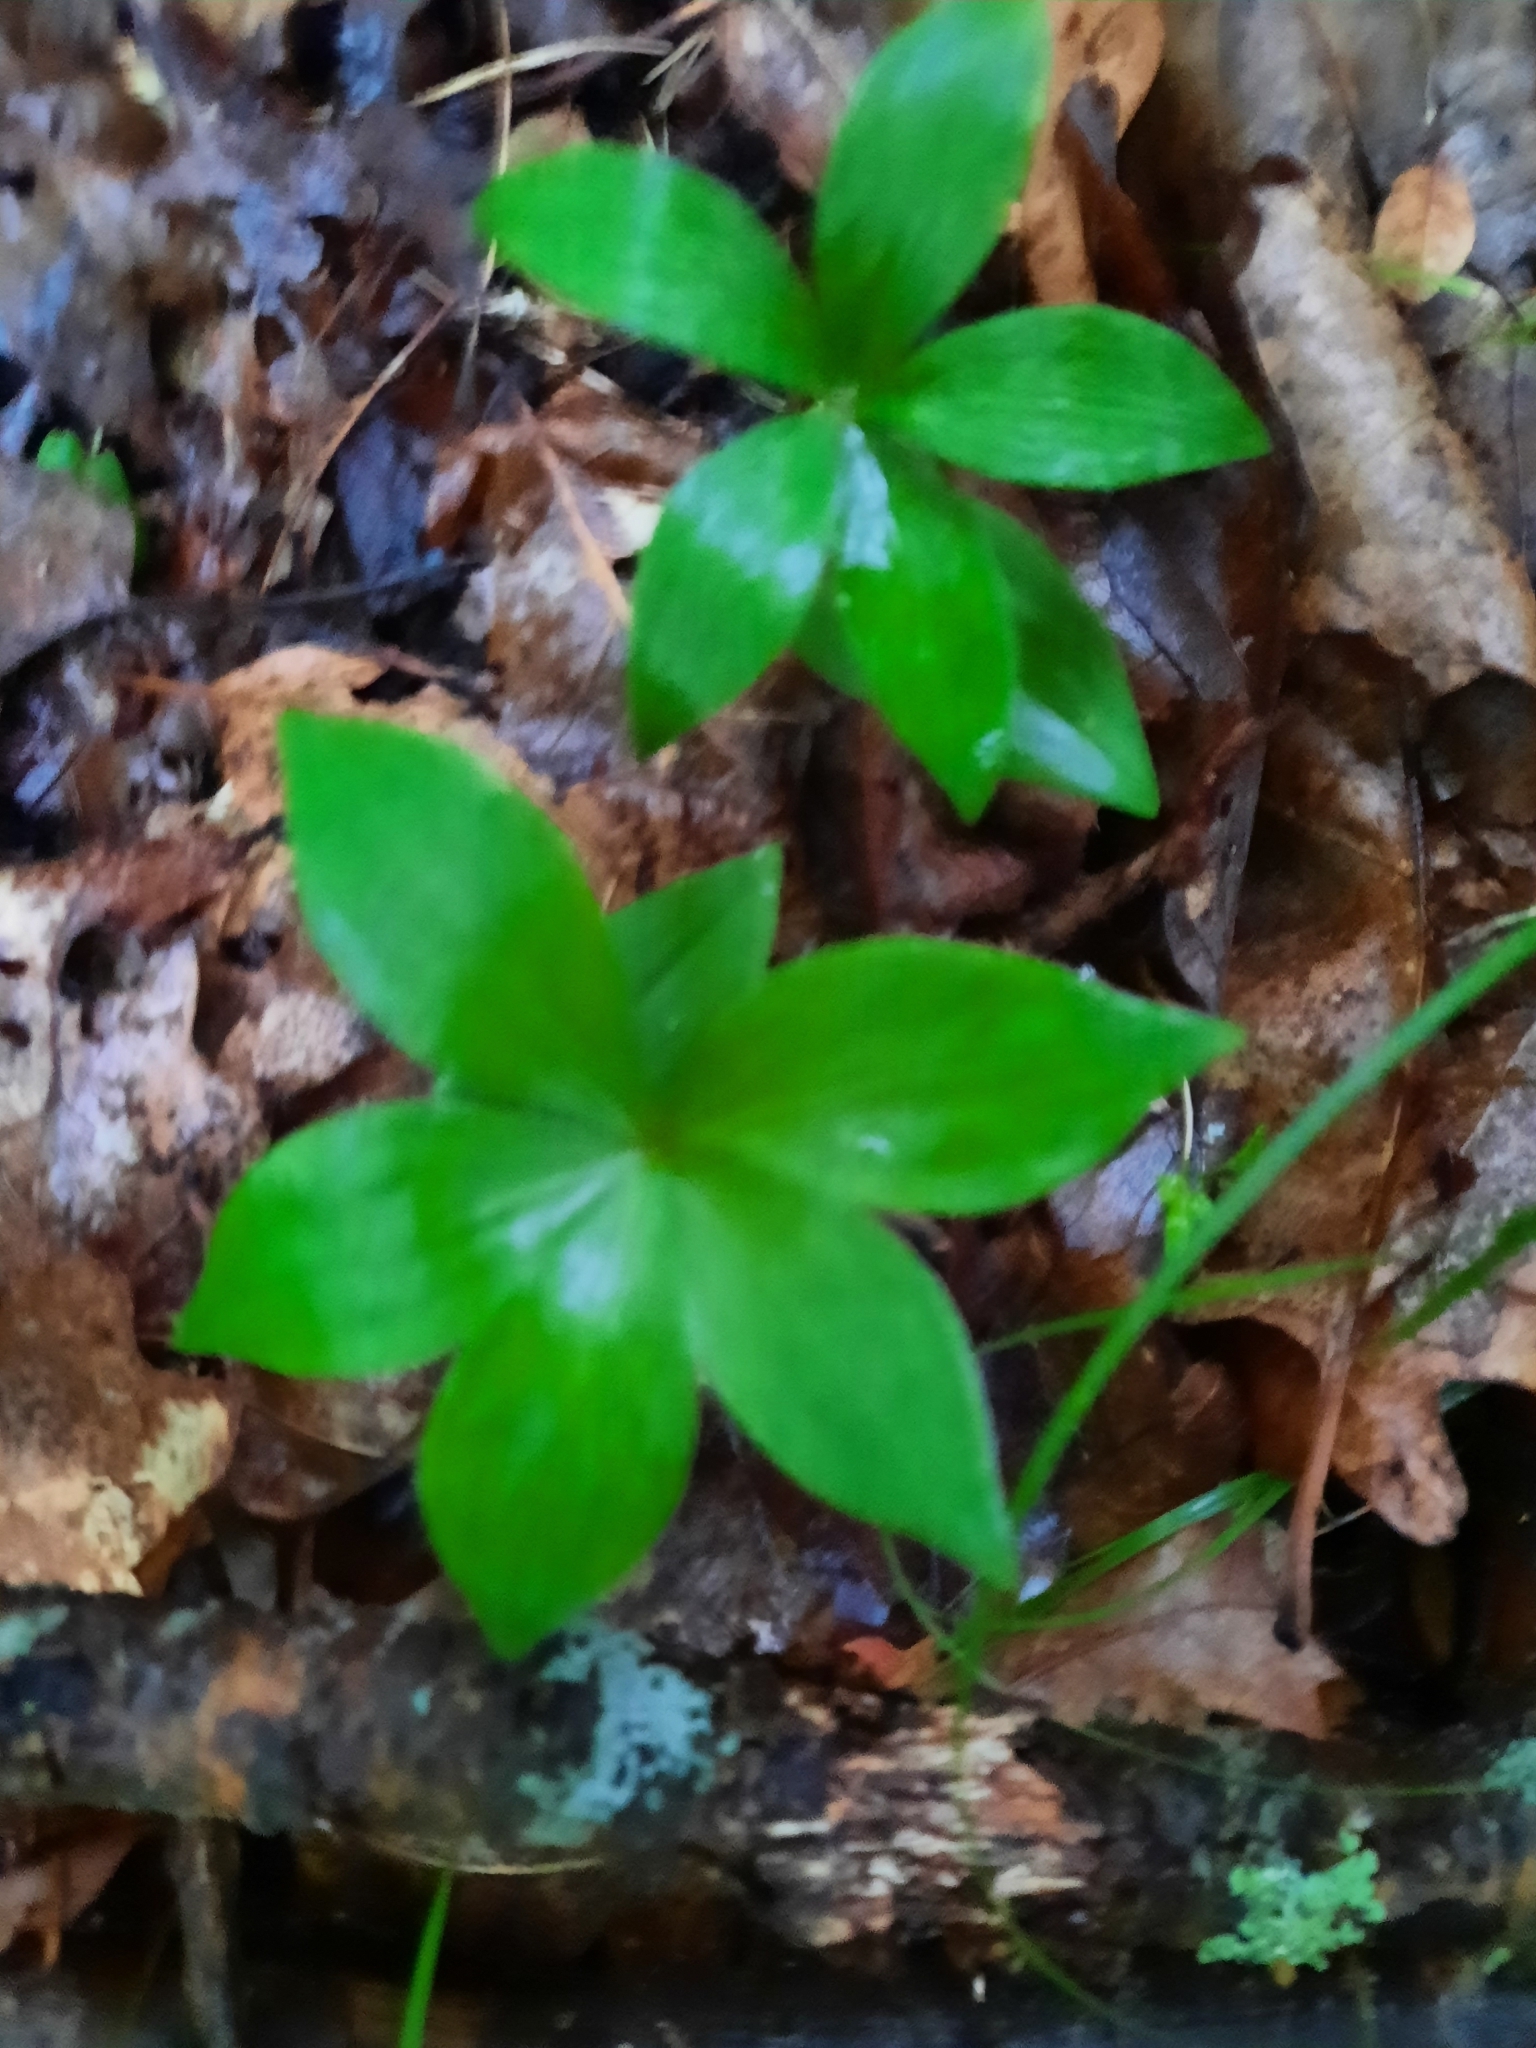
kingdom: Plantae
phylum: Tracheophyta
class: Liliopsida
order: Liliales
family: Liliaceae
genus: Medeola
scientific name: Medeola virginiana
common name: Indian cucumber-root
